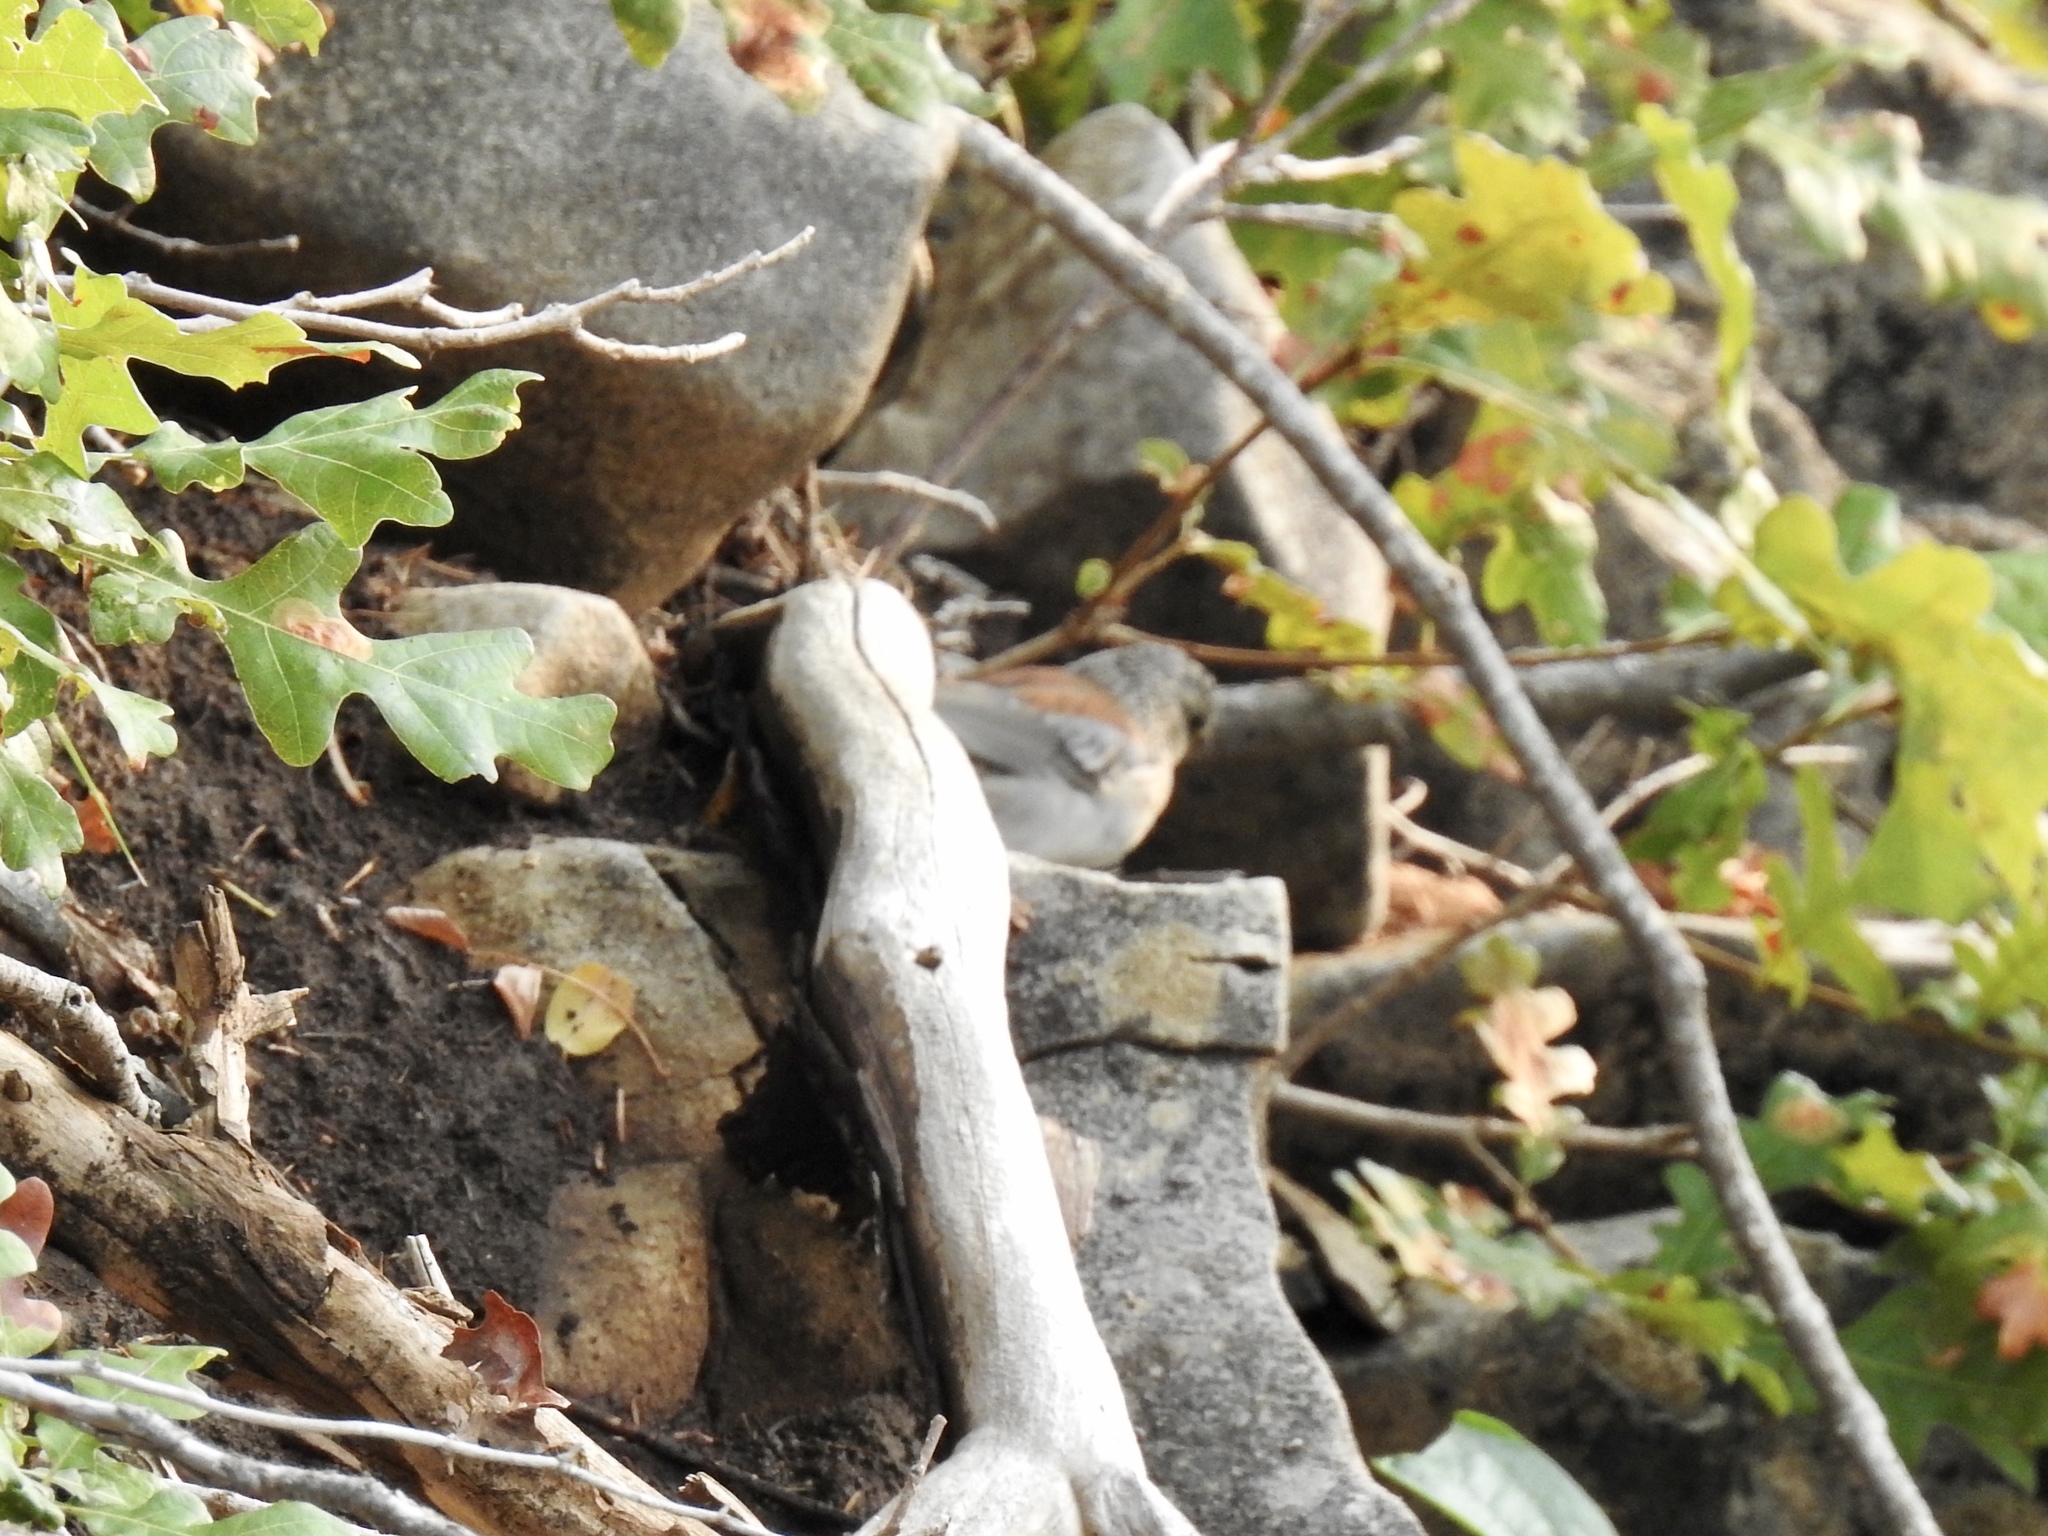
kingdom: Animalia
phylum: Chordata
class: Aves
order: Passeriformes
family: Passerellidae
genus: Junco
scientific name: Junco hyemalis
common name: Dark-eyed junco
